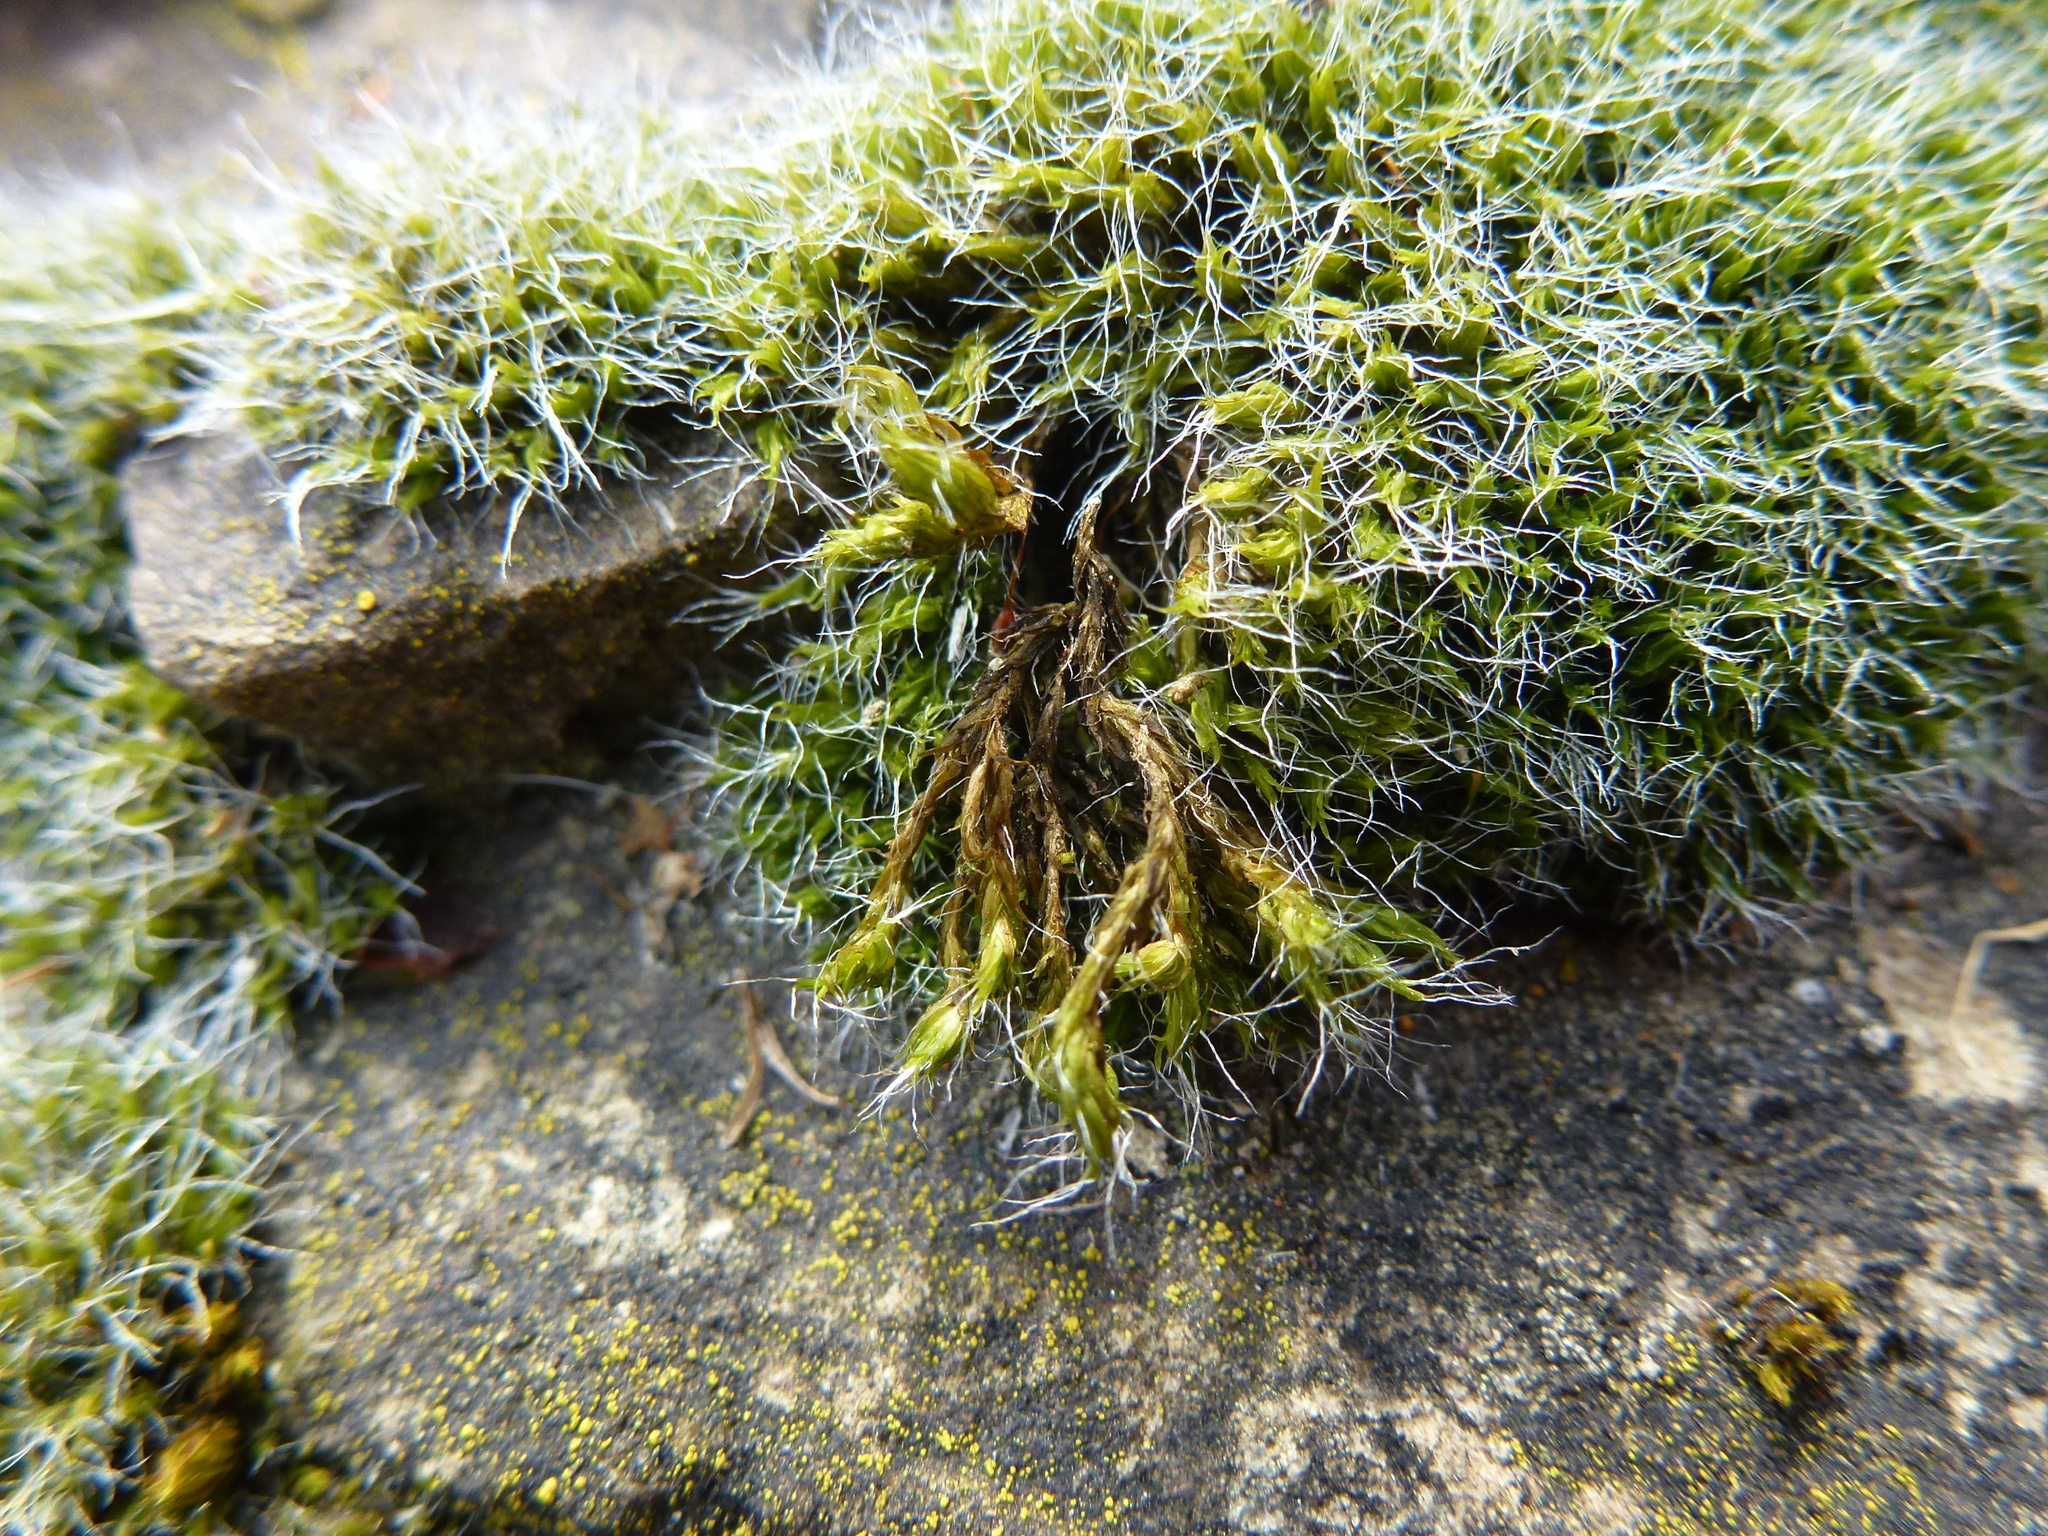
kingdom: Plantae
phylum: Bryophyta
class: Bryopsida
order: Grimmiales
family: Grimmiaceae
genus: Grimmia
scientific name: Grimmia pulvinata
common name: Grey-cushioned grimmia
